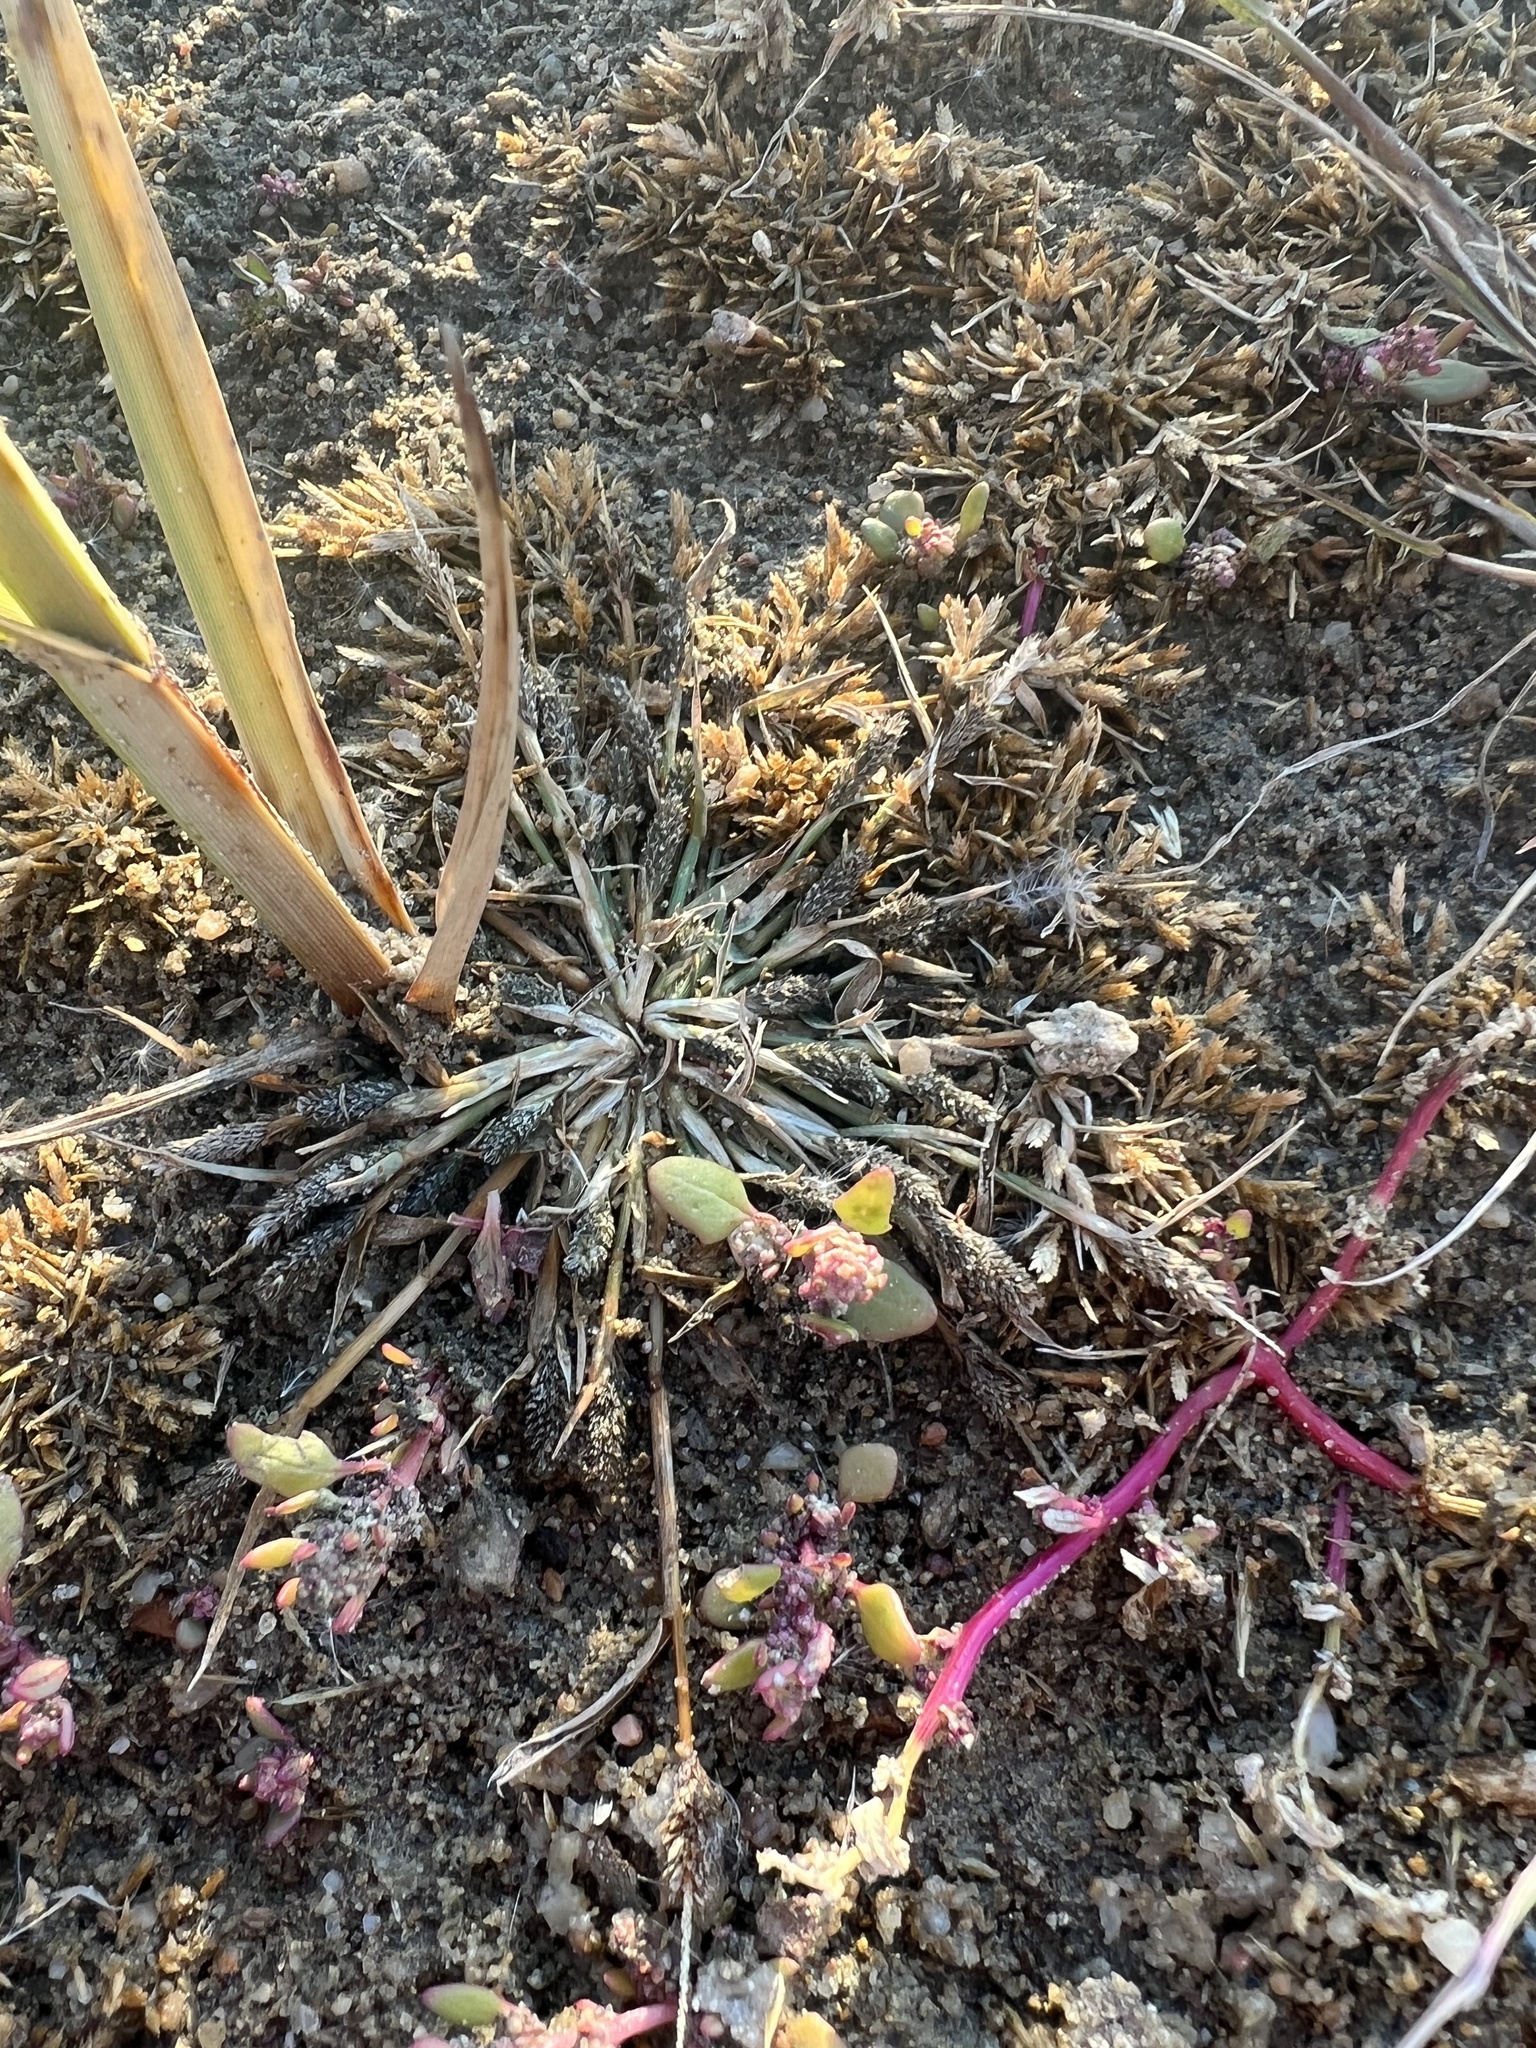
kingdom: Plantae
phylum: Tracheophyta
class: Liliopsida
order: Poales
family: Poaceae
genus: Sporobolus
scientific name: Sporobolus alopecuroides
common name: Foxtail pricklegrass
